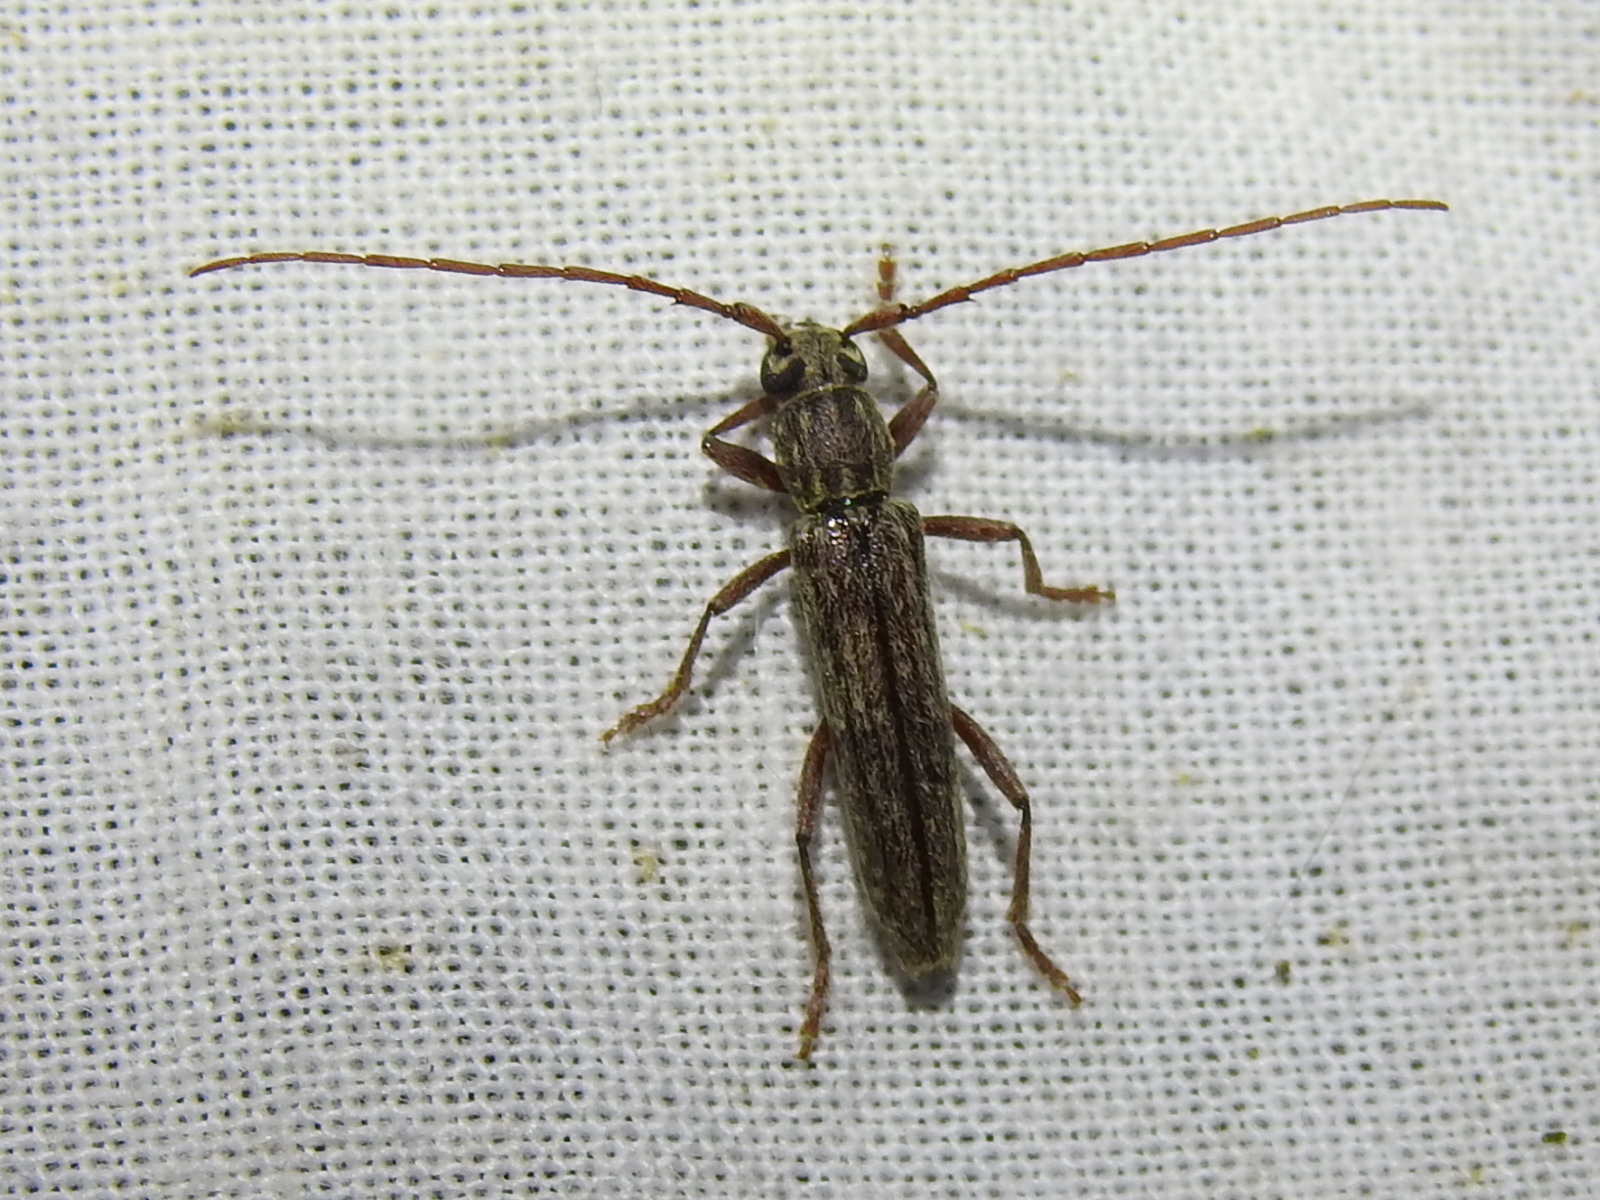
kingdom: Animalia
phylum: Arthropoda
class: Insecta
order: Coleoptera
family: Cerambycidae
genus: Anelaphus
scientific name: Anelaphus villosus
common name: Twig pruner
